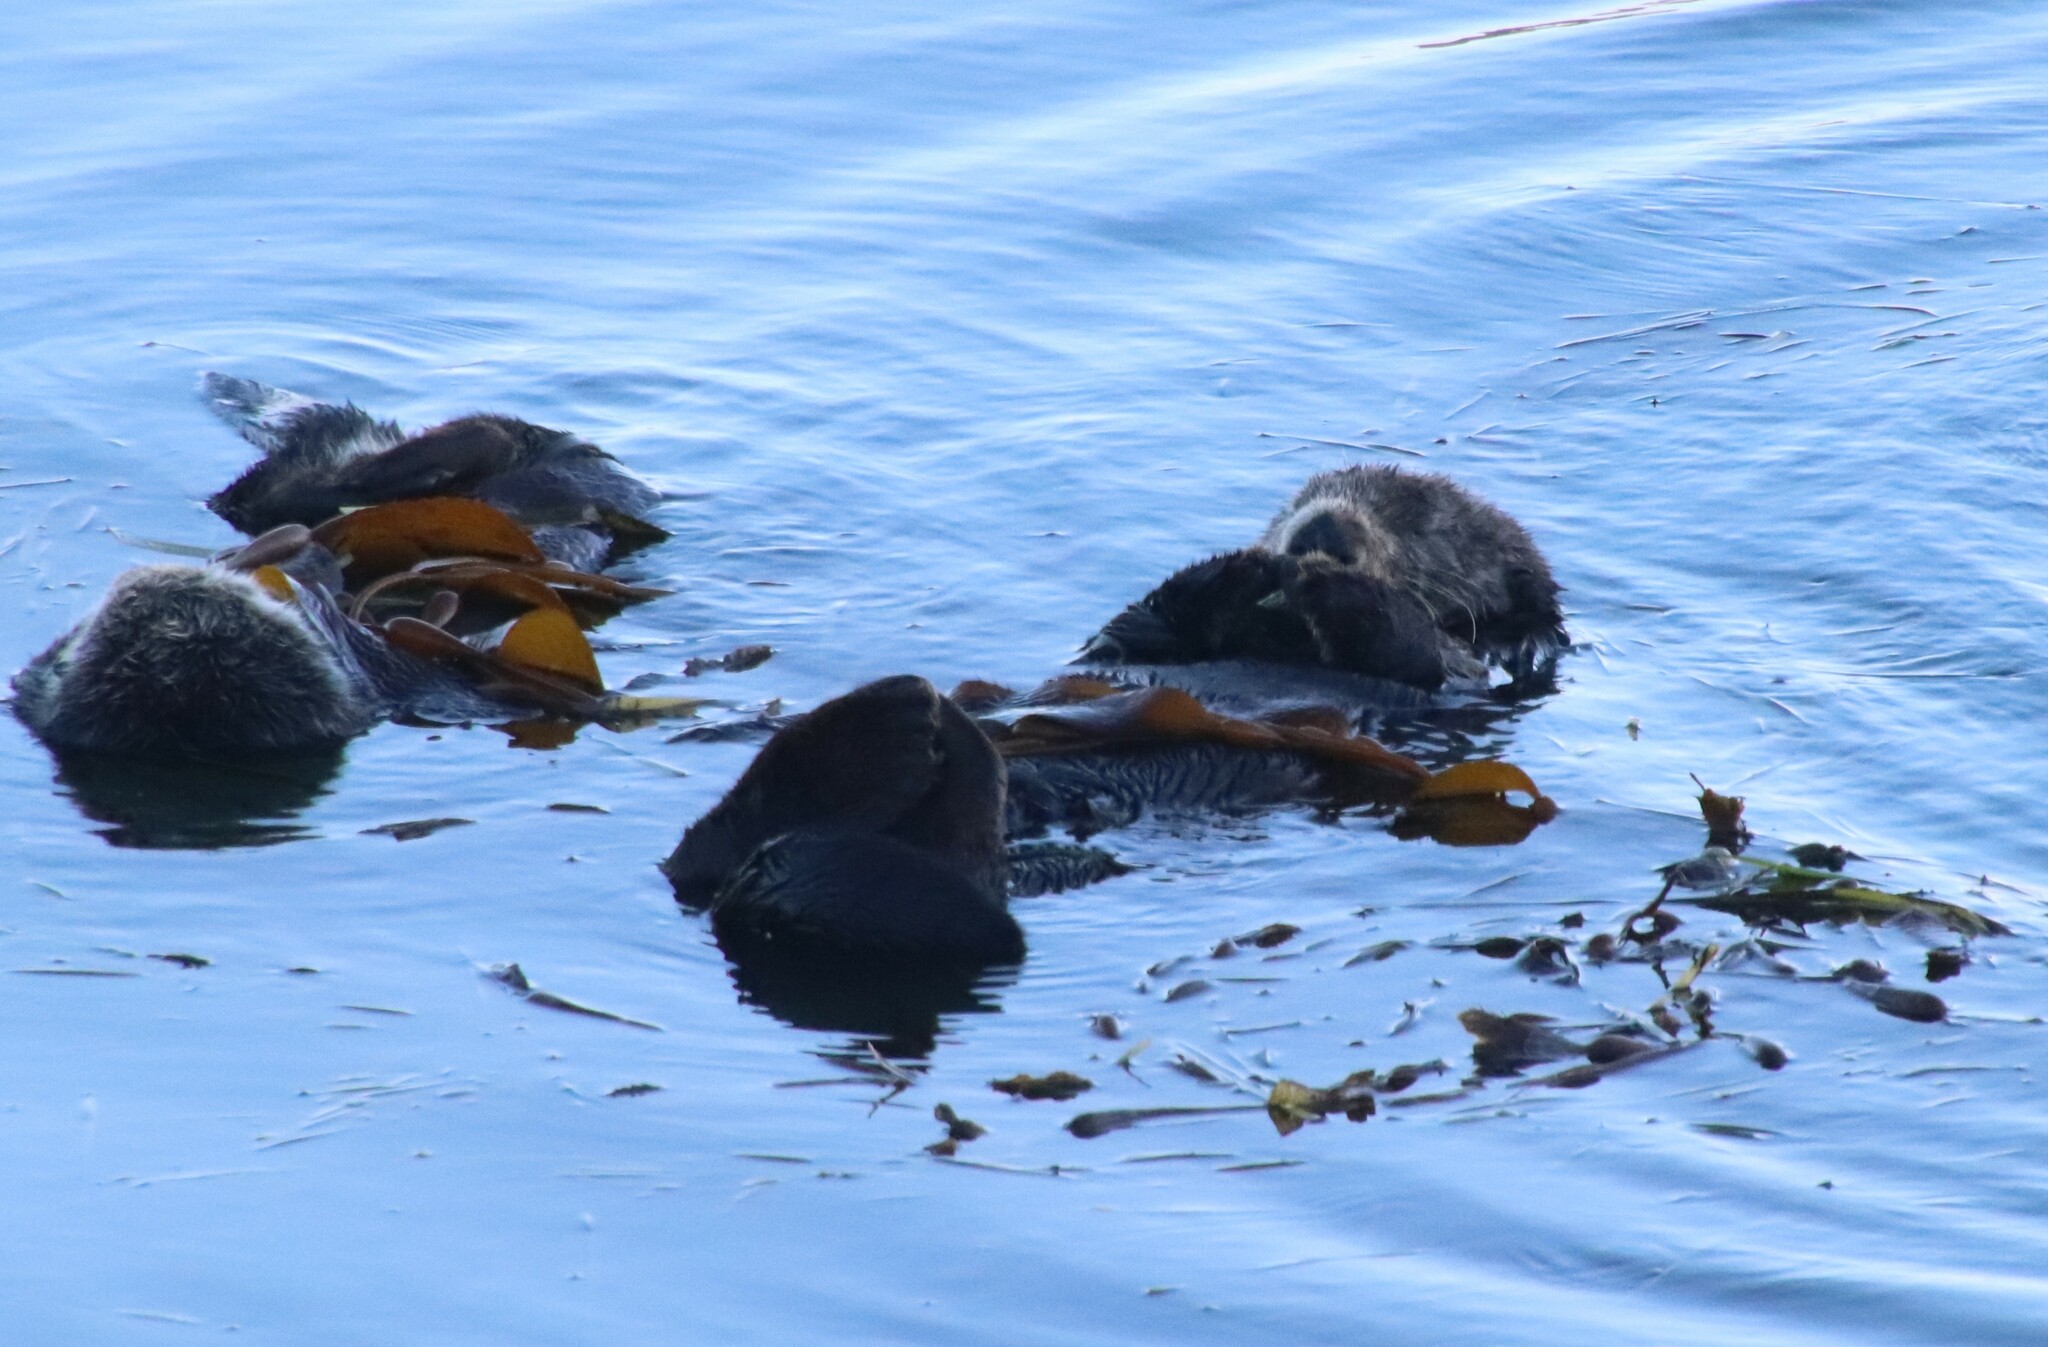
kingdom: Animalia
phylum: Chordata
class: Mammalia
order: Carnivora
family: Mustelidae
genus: Enhydra
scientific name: Enhydra lutris
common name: Sea otter
